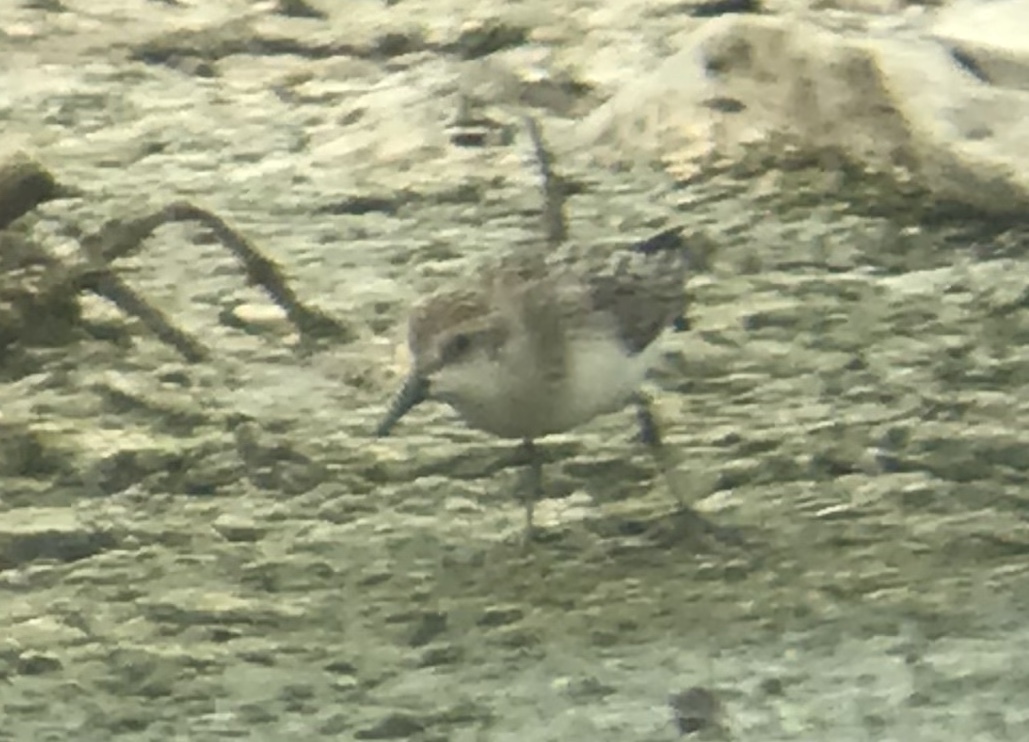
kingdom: Animalia
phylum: Chordata
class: Aves
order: Charadriiformes
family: Scolopacidae
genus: Calidris
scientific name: Calidris pusilla
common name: Semipalmated sandpiper
